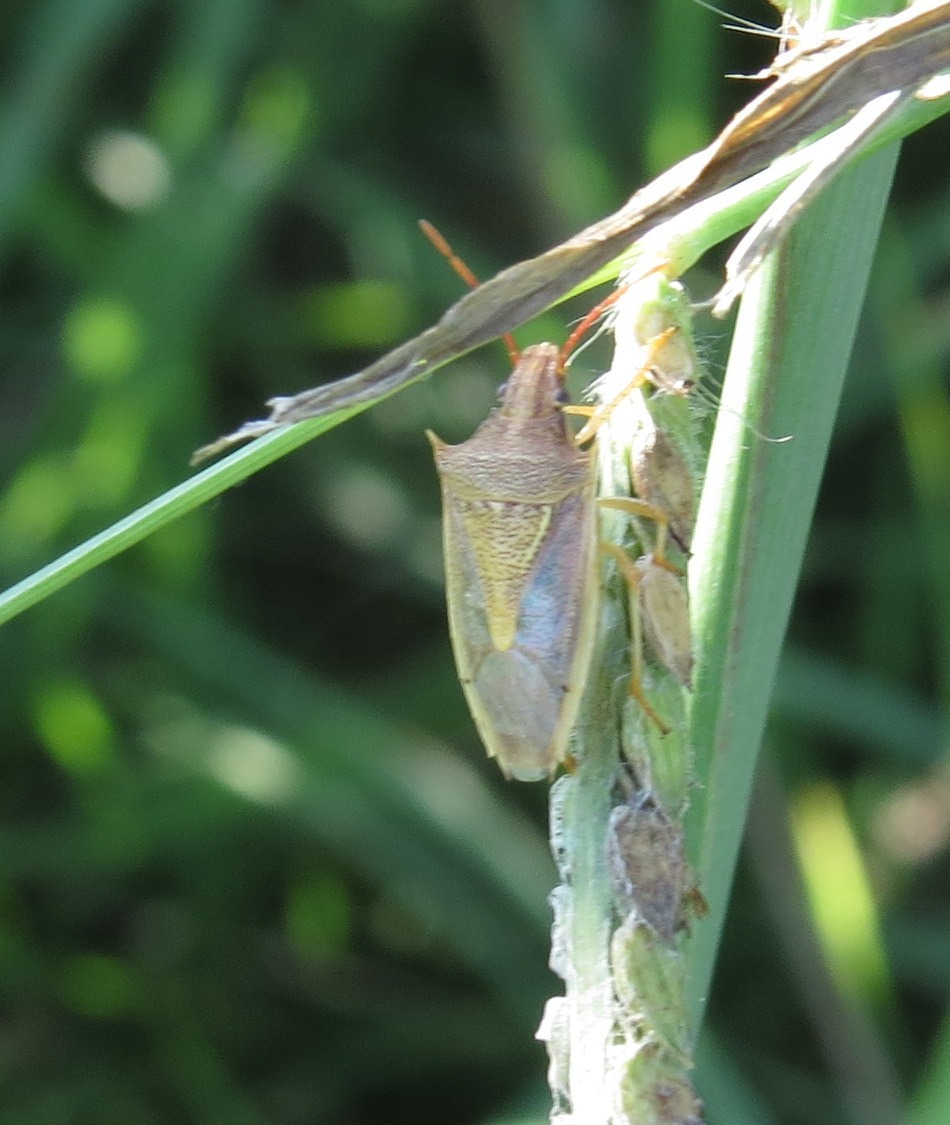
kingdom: Animalia
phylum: Arthropoda
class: Insecta
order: Hemiptera
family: Pentatomidae
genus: Oebalus
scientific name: Oebalus pugnax
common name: Rice stink bug
